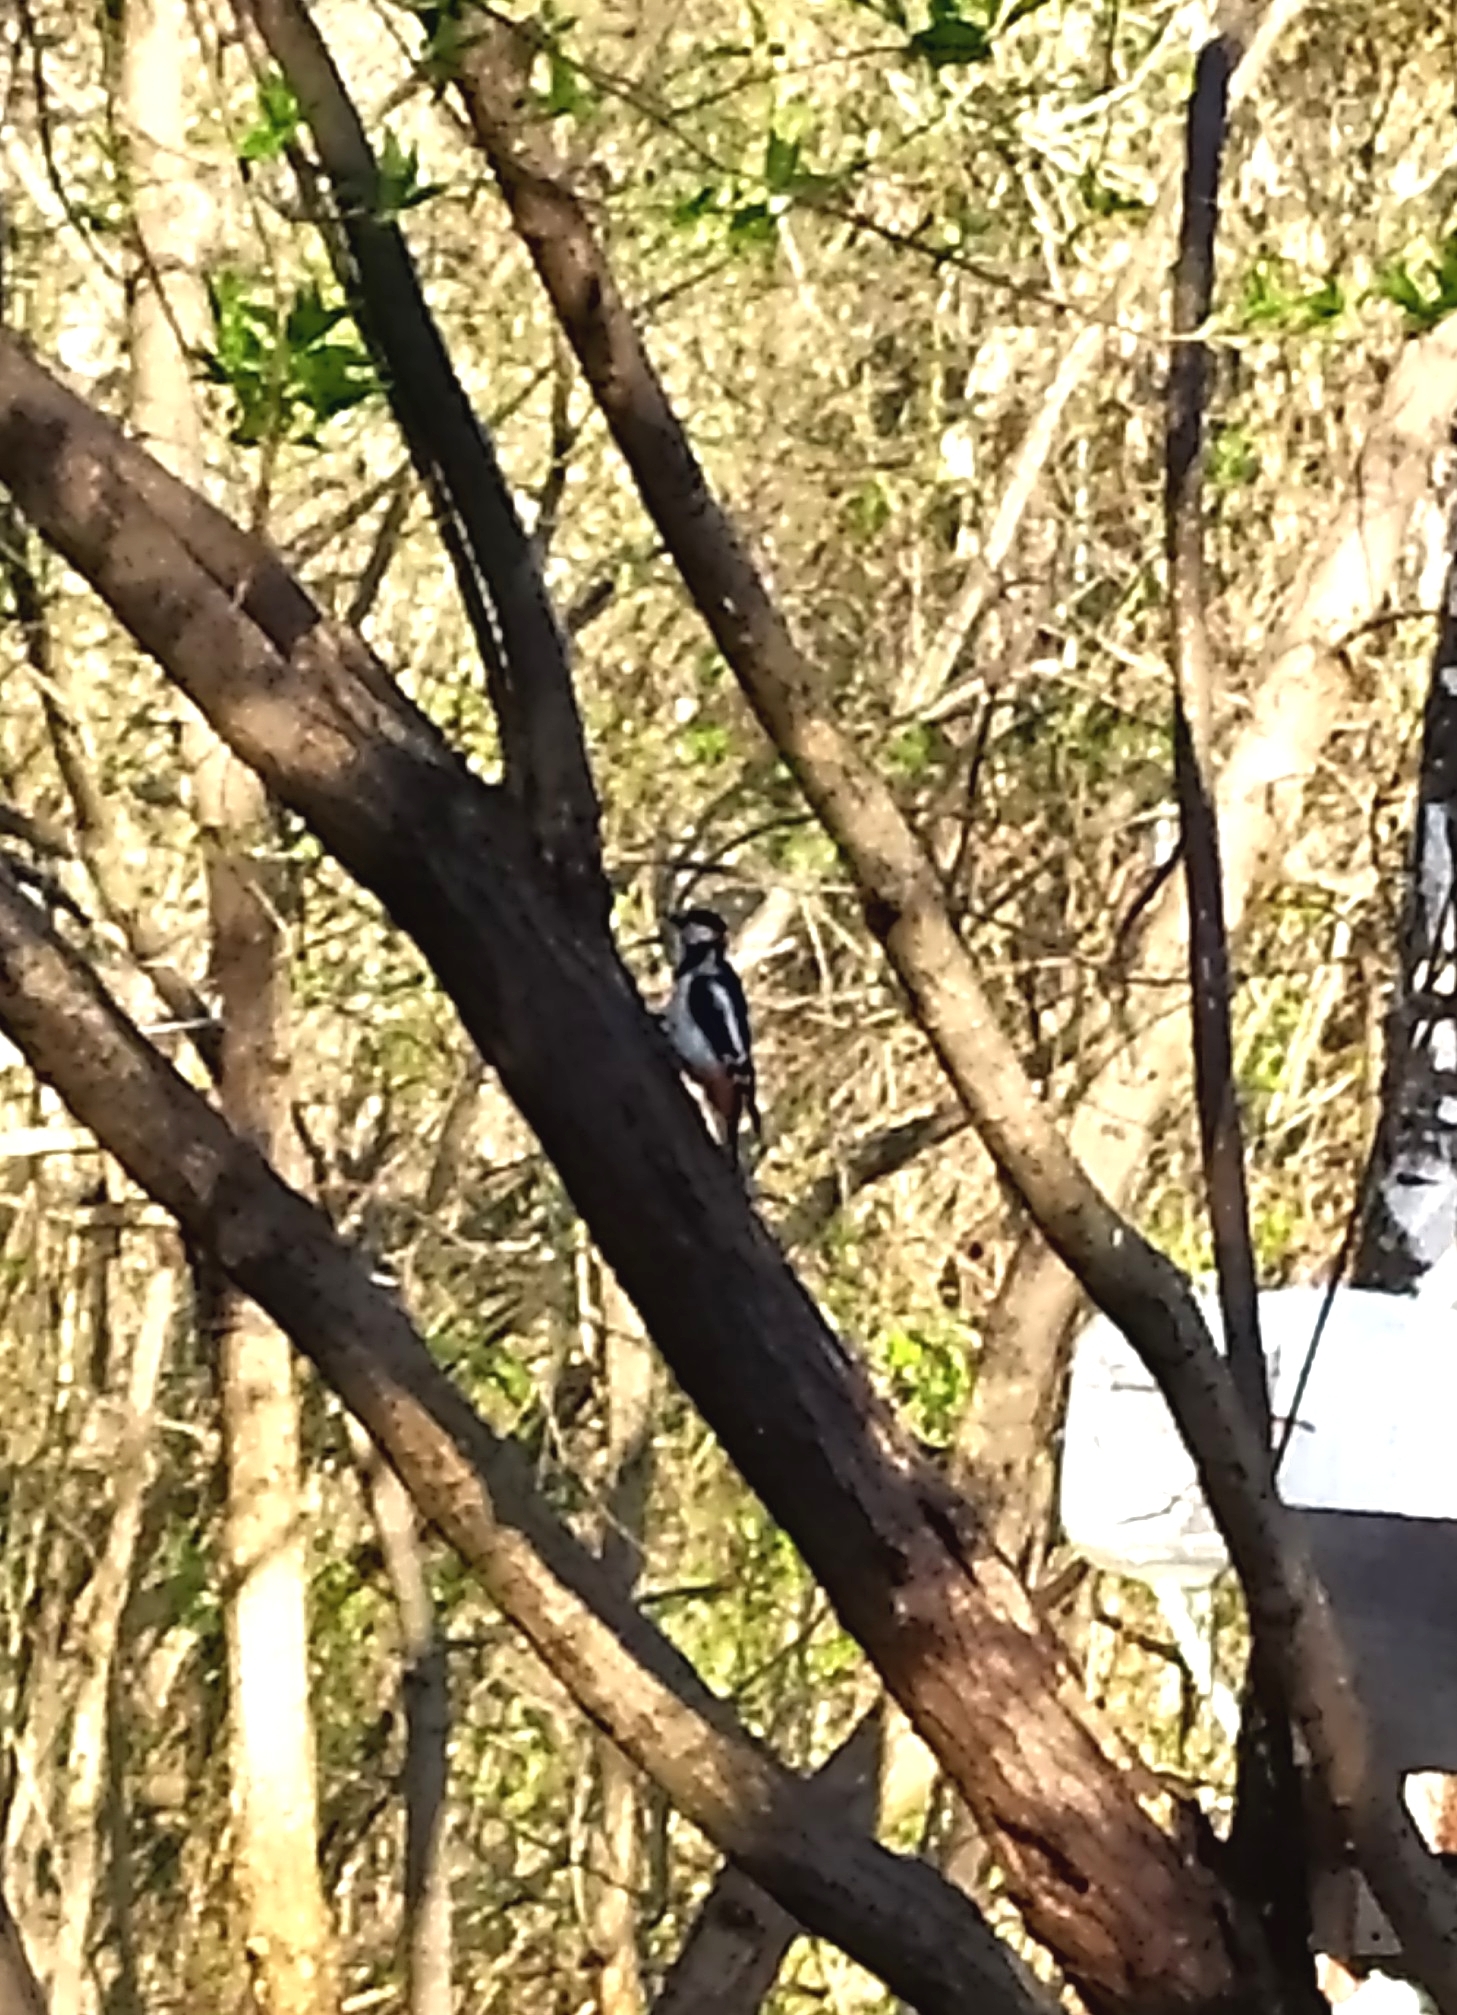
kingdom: Animalia
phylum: Chordata
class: Aves
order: Piciformes
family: Picidae
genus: Dendrocopos
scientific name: Dendrocopos major
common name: Great spotted woodpecker
